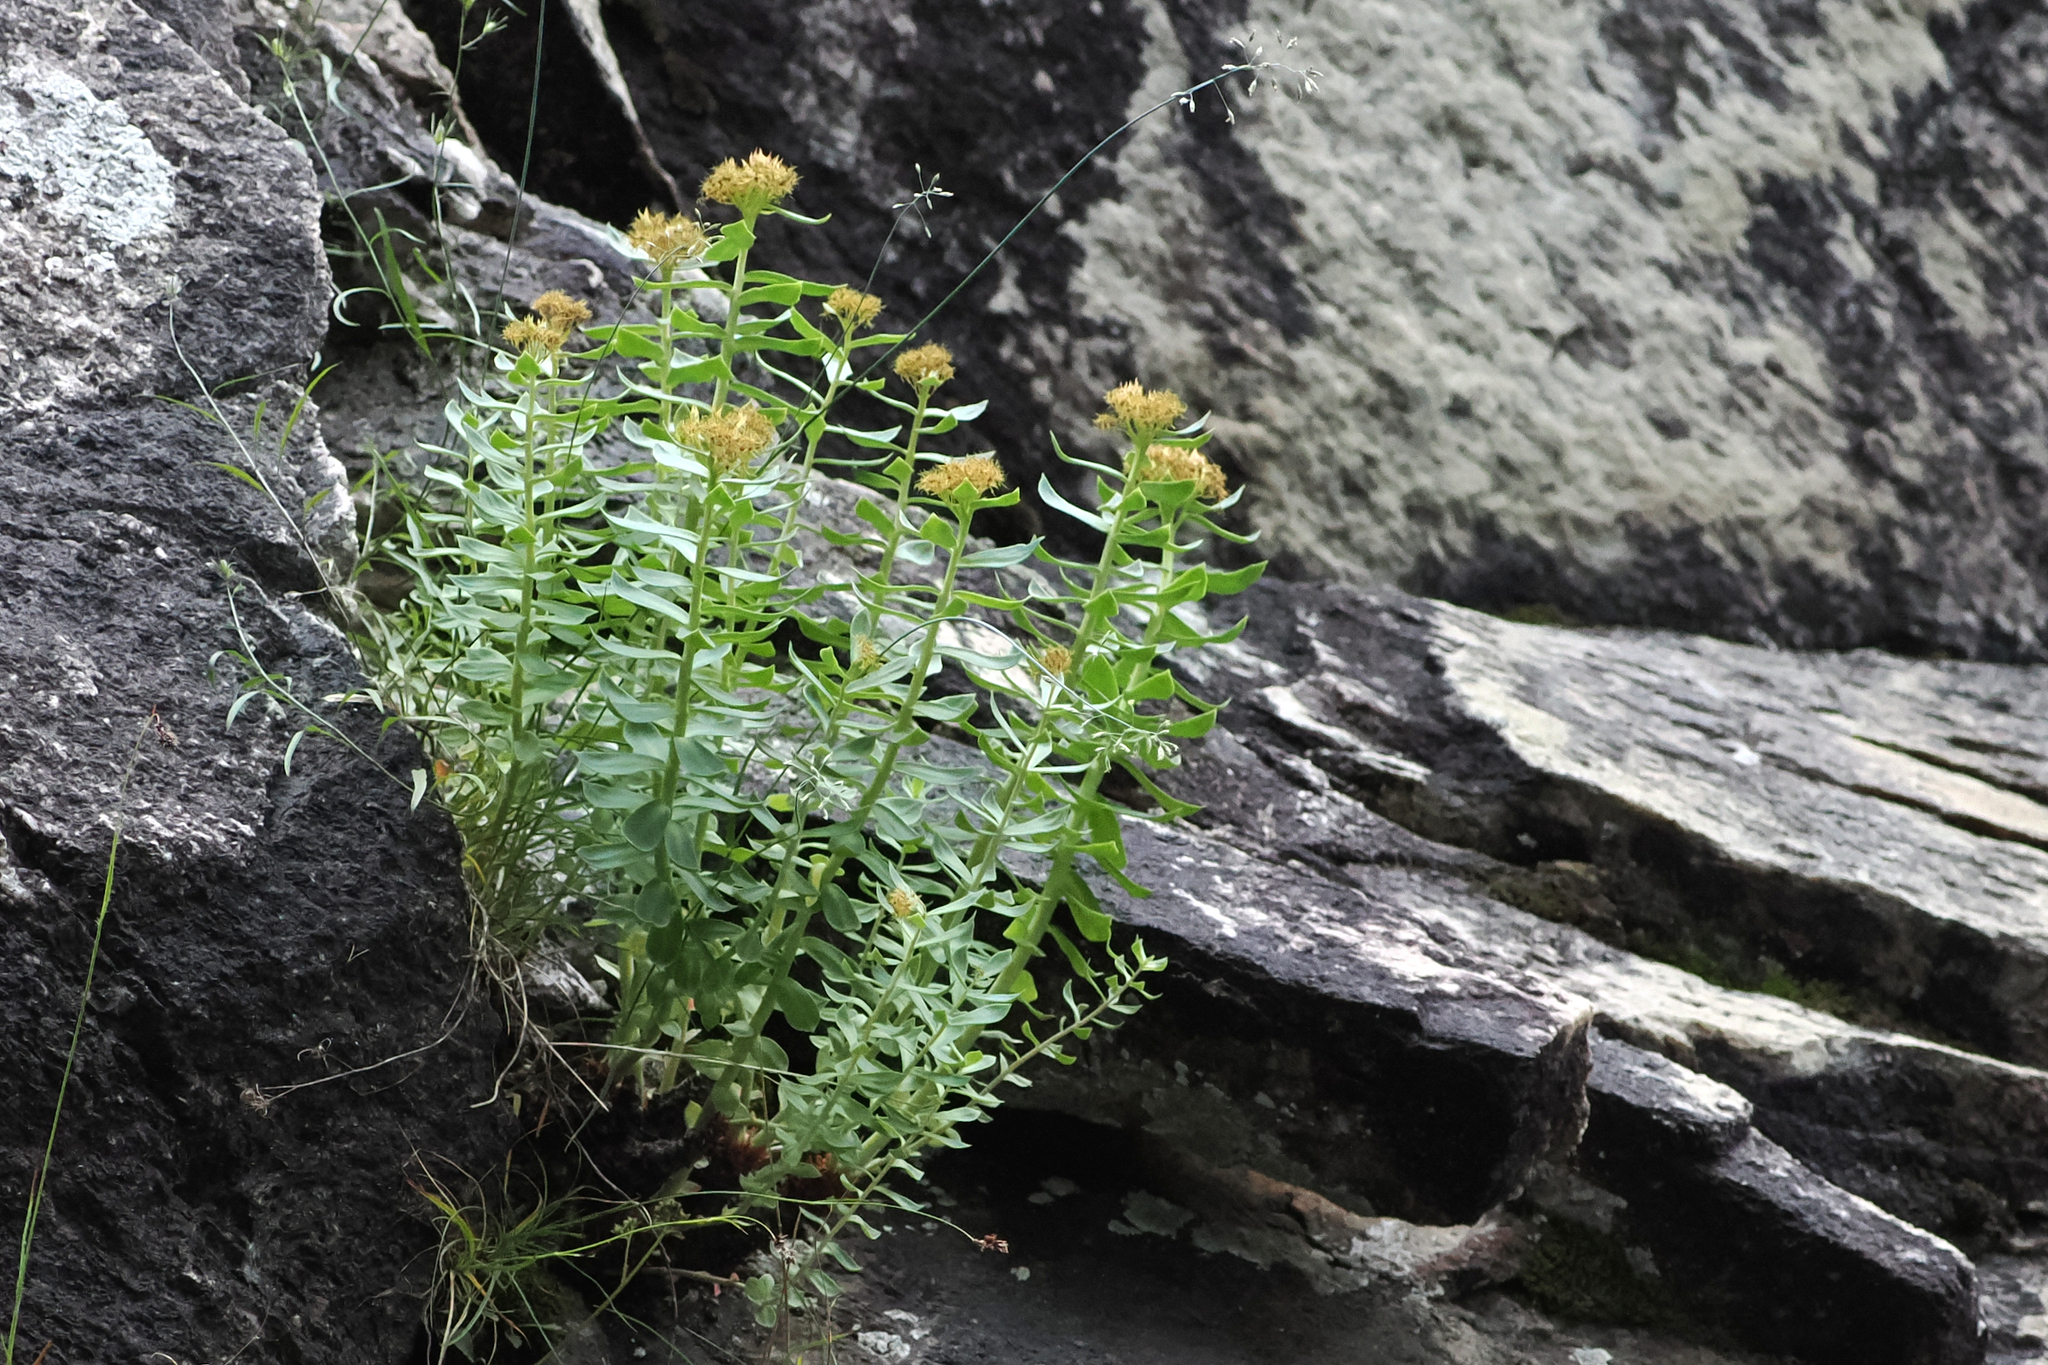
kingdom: Plantae
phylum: Tracheophyta
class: Magnoliopsida
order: Saxifragales
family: Crassulaceae
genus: Rhodiola
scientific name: Rhodiola rosea
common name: Roseroot
